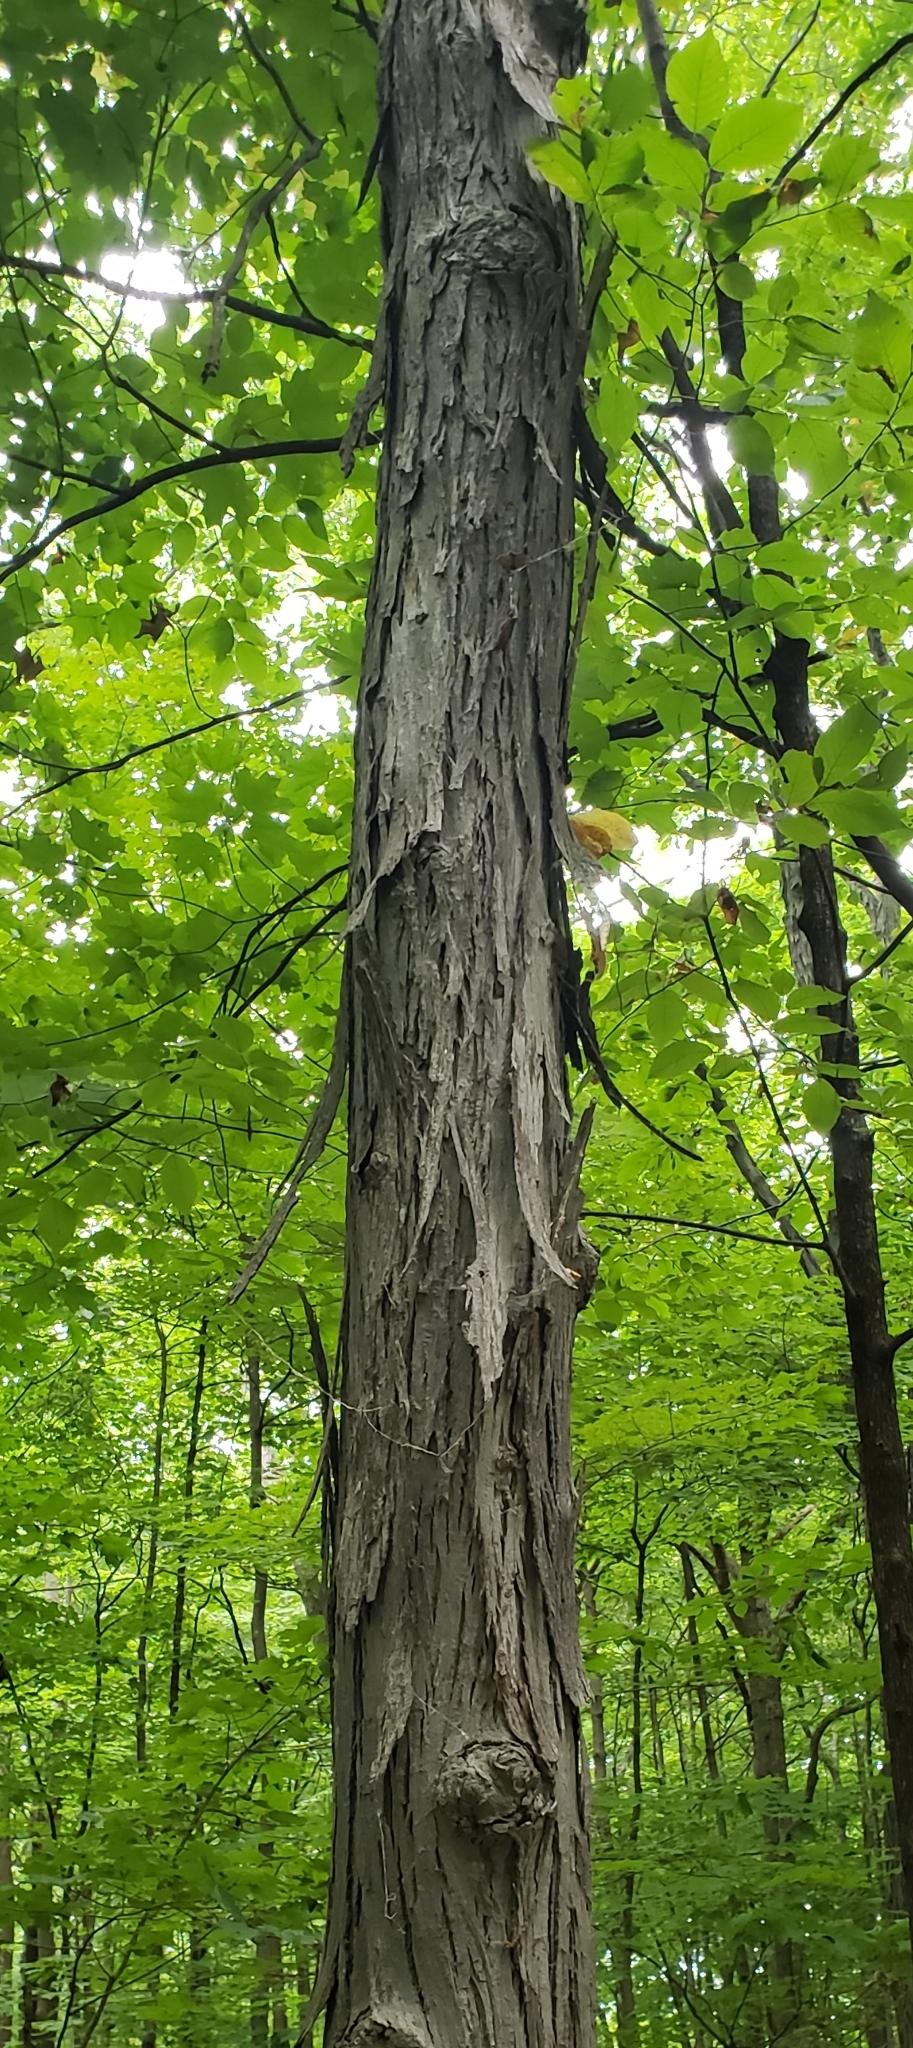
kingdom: Plantae
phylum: Tracheophyta
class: Magnoliopsida
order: Fagales
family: Juglandaceae
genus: Carya
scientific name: Carya ovata
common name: Shagbark hickory
